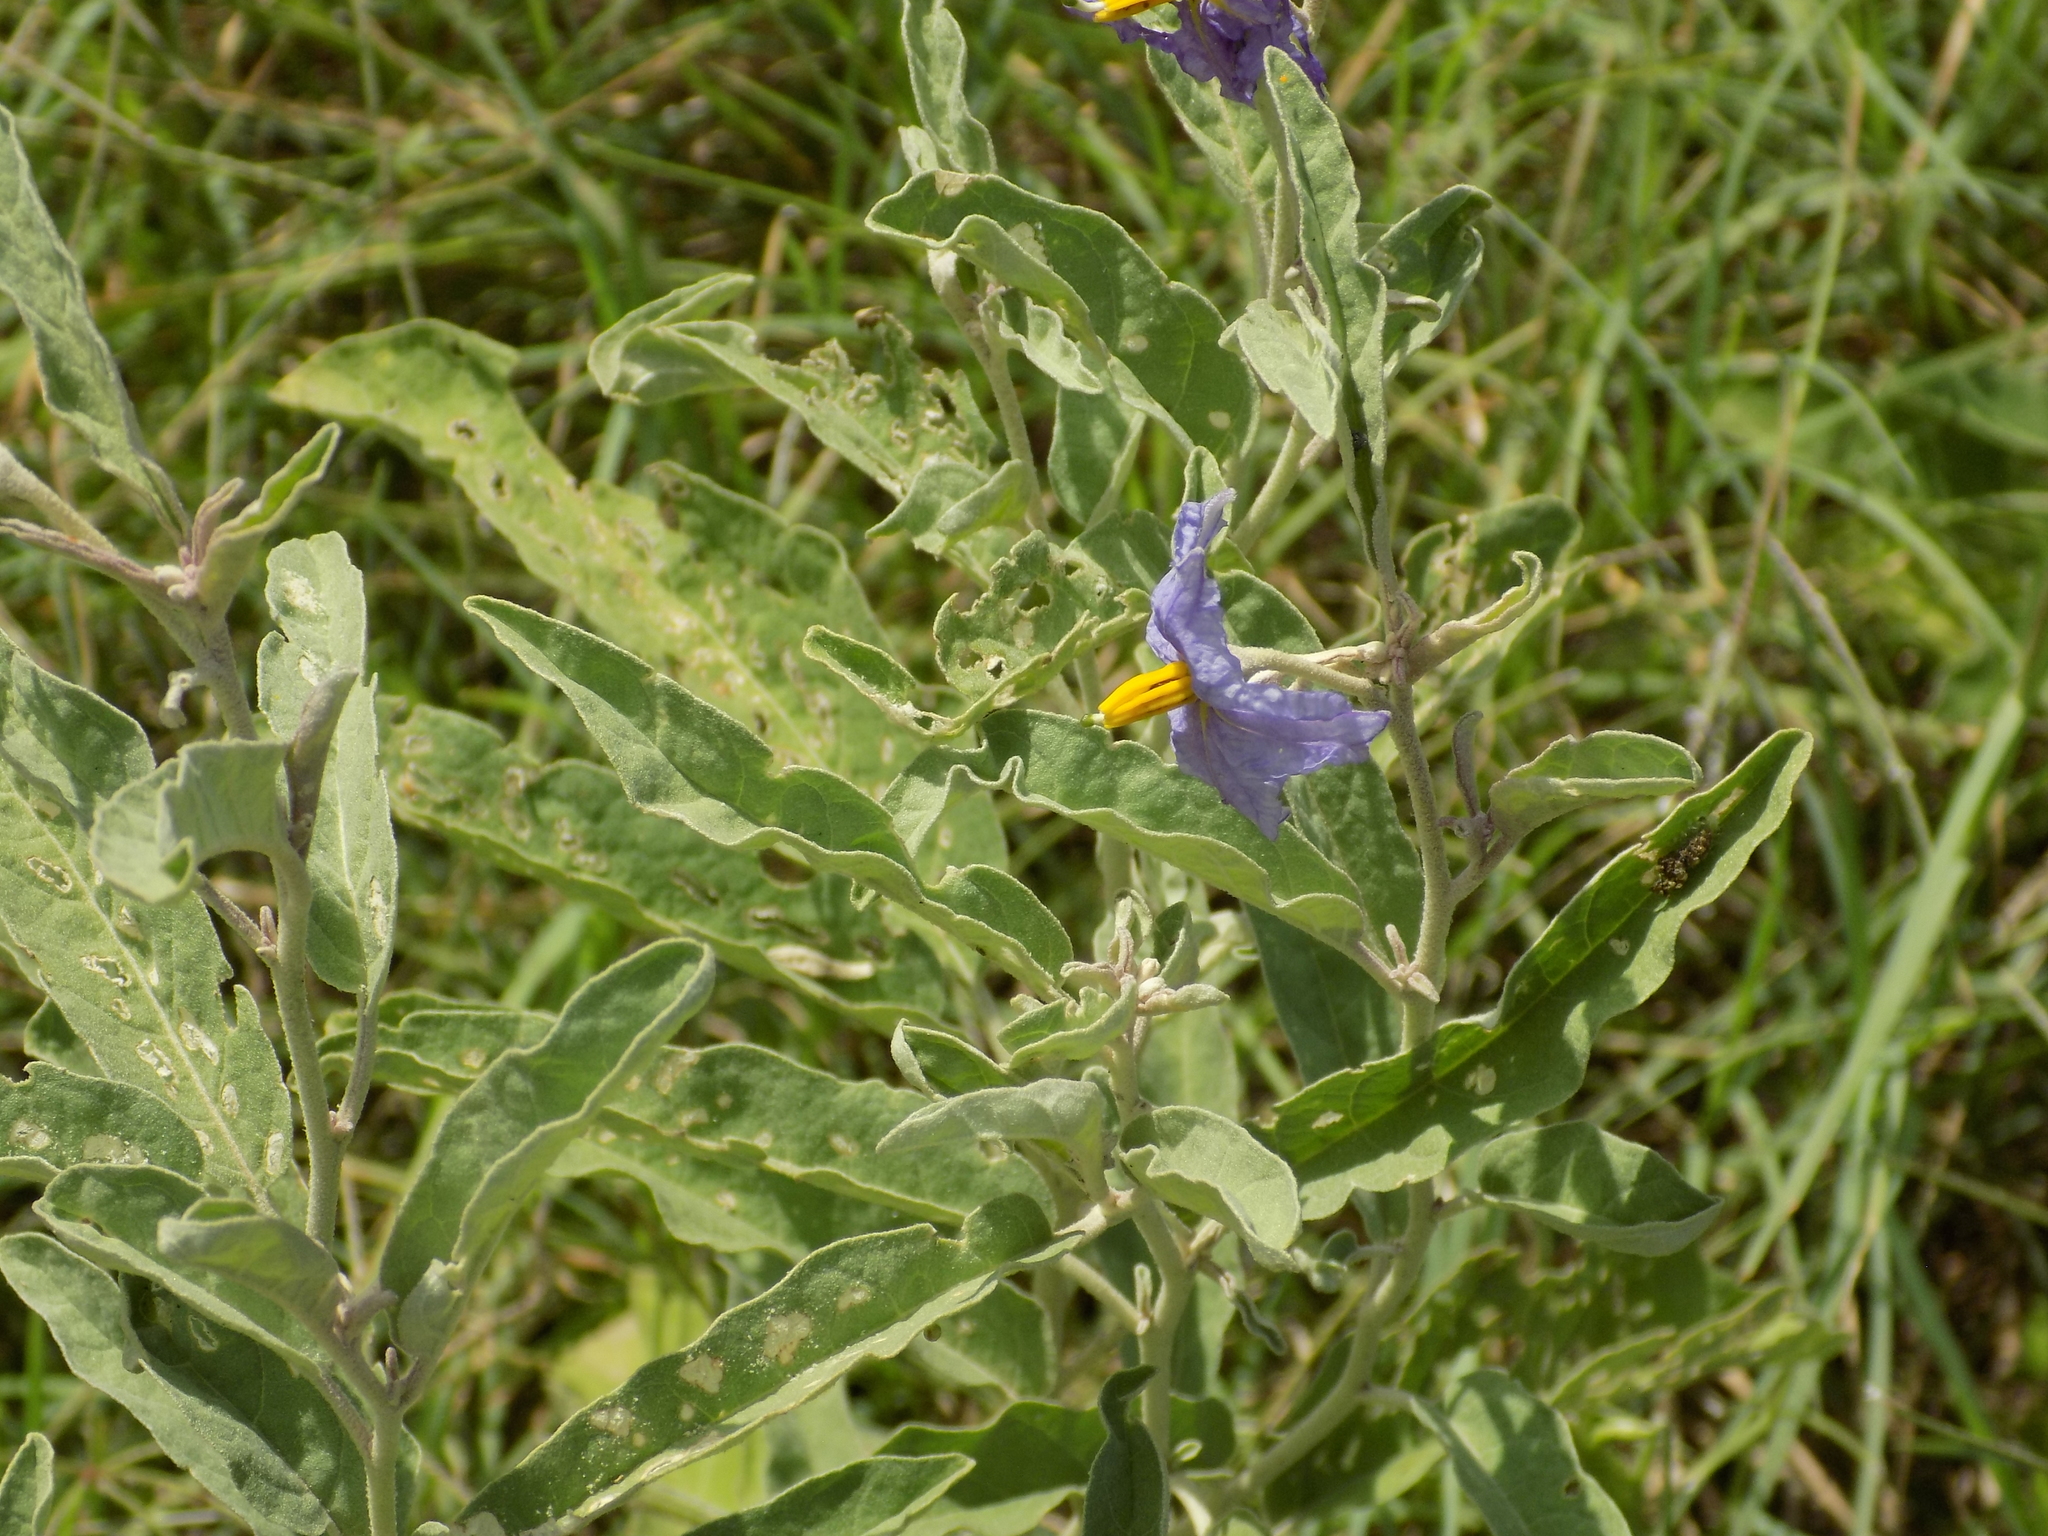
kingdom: Plantae
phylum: Tracheophyta
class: Magnoliopsida
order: Solanales
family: Solanaceae
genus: Solanum
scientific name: Solanum elaeagnifolium
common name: Silverleaf nightshade
